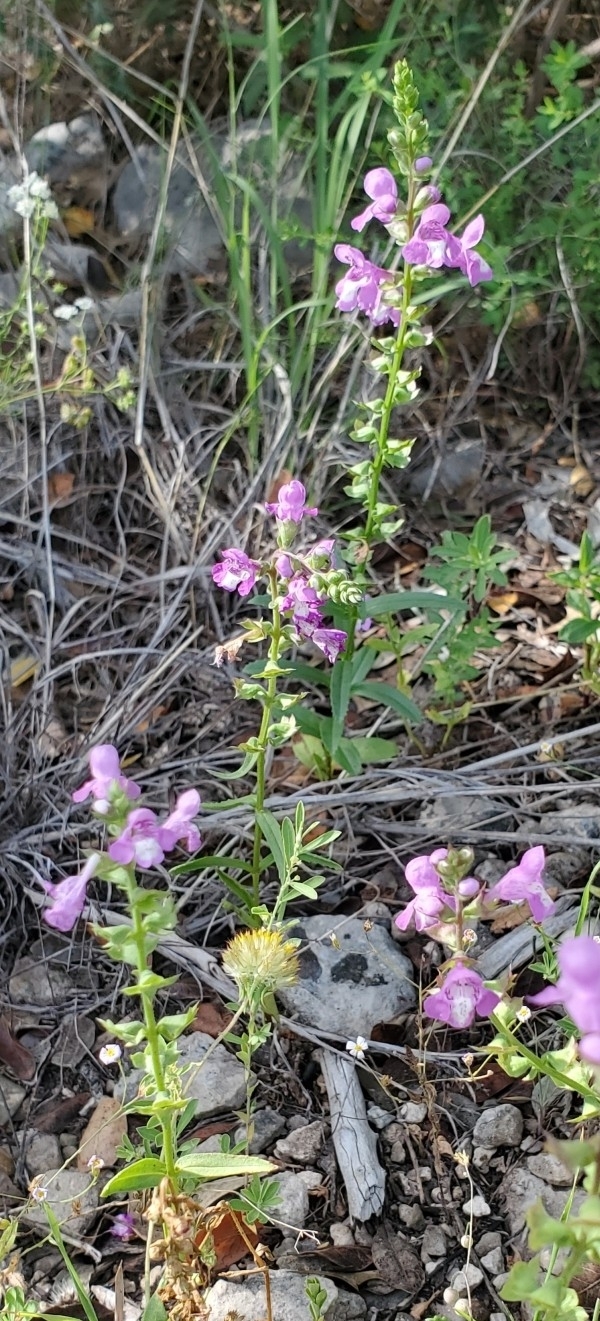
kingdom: Plantae
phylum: Tracheophyta
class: Magnoliopsida
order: Lamiales
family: Lamiaceae
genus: Warnockia
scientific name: Warnockia scutellarioides
